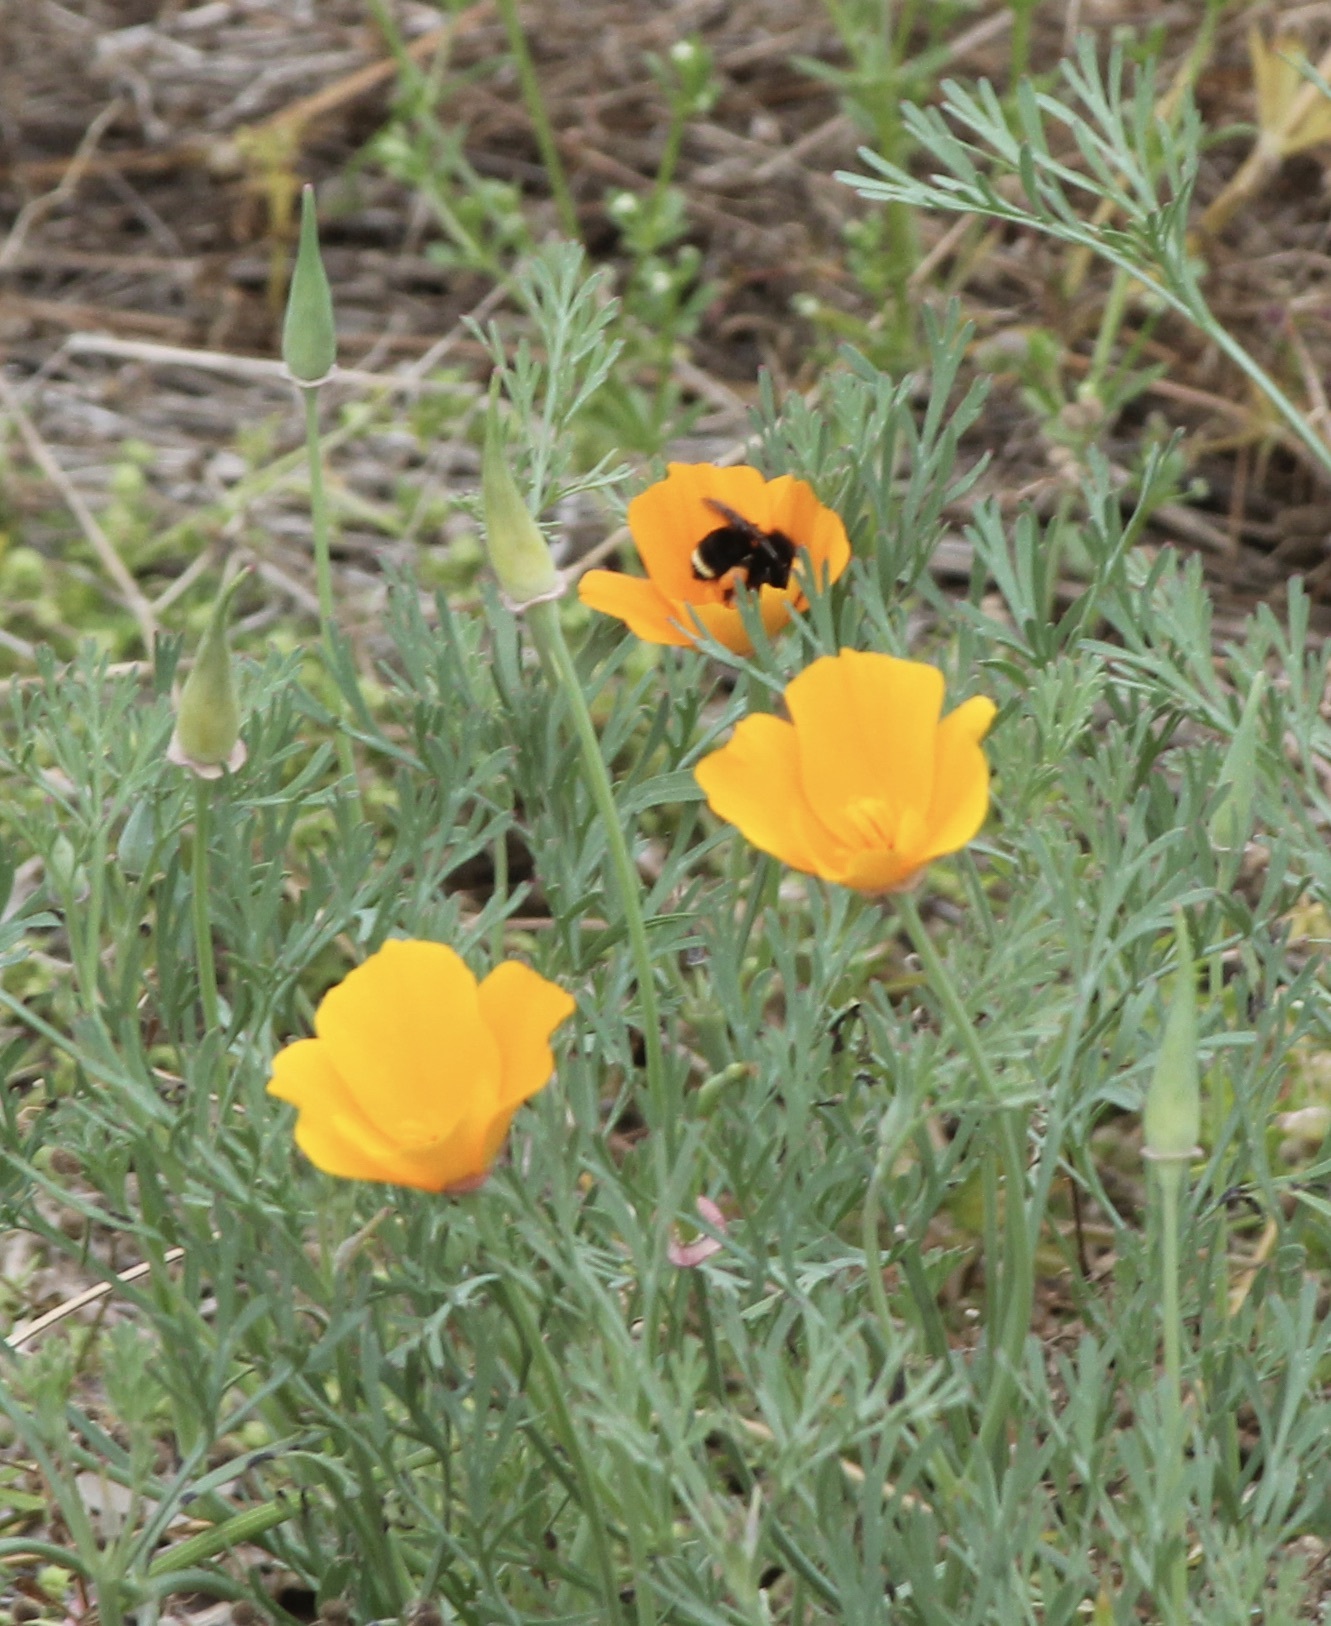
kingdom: Animalia
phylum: Arthropoda
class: Insecta
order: Hymenoptera
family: Apidae
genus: Bombus
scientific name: Bombus vosnesenskii
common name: Vosnesensky bumble bee
